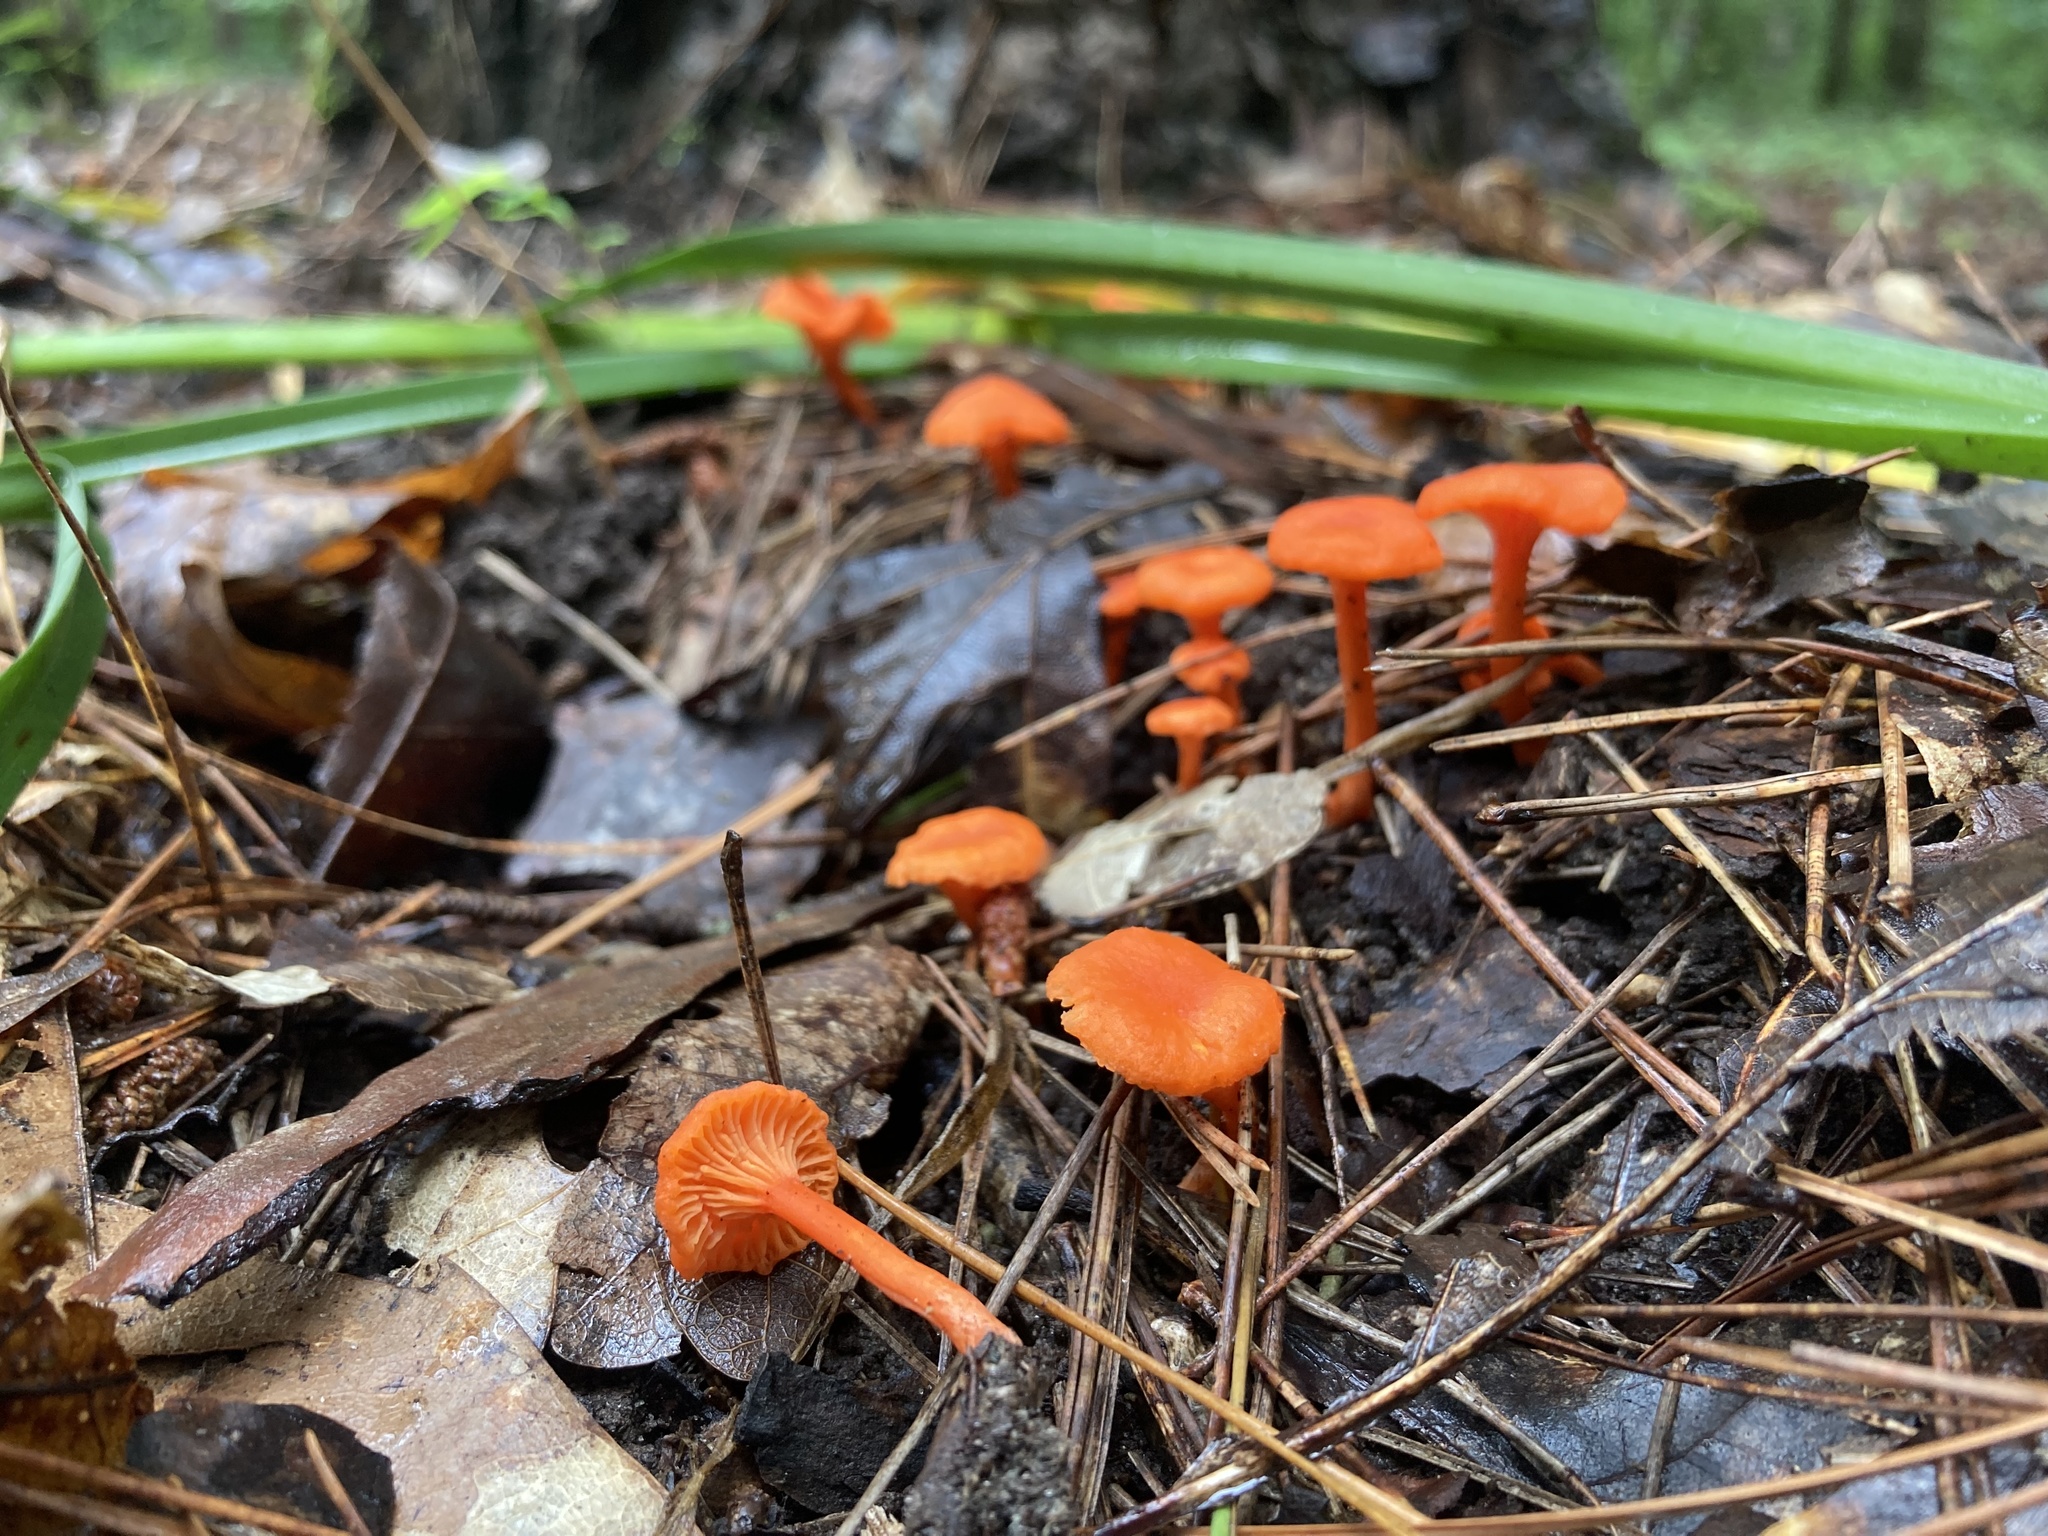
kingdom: Fungi
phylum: Basidiomycota
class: Agaricomycetes
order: Cantharellales
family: Hydnaceae
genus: Cantharellus
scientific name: Cantharellus cinnabarinus
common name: Cinnabar chanterelle
